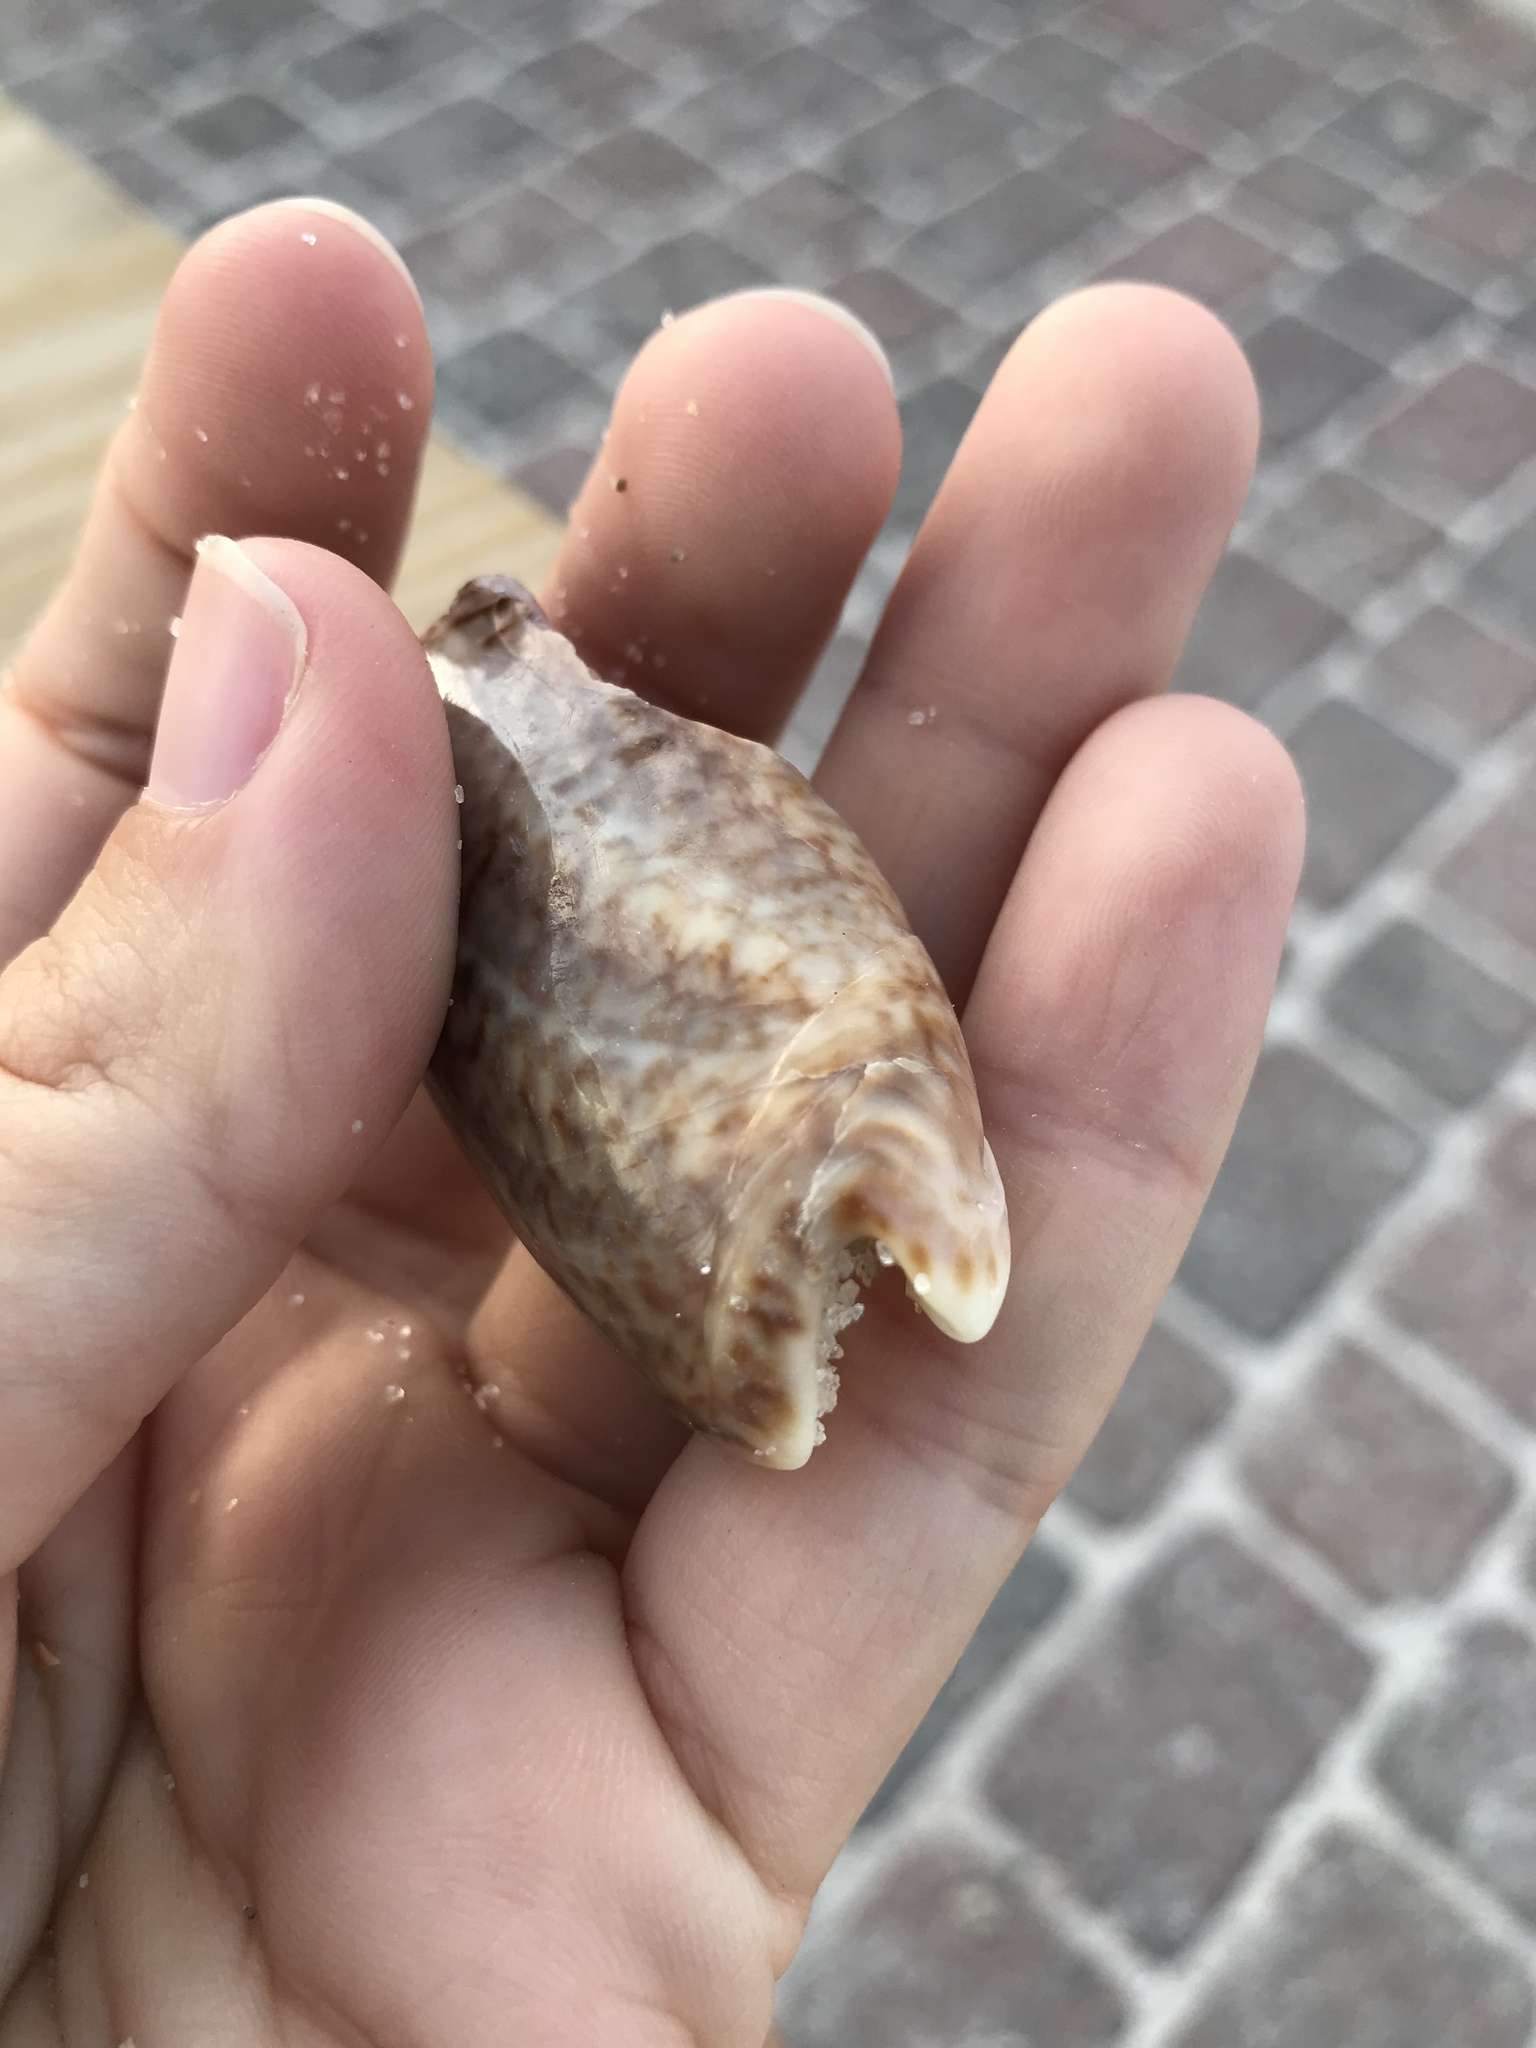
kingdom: Animalia
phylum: Mollusca
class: Gastropoda
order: Neogastropoda
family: Olividae
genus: Oliva
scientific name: Oliva sayana
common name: Lettered olive
